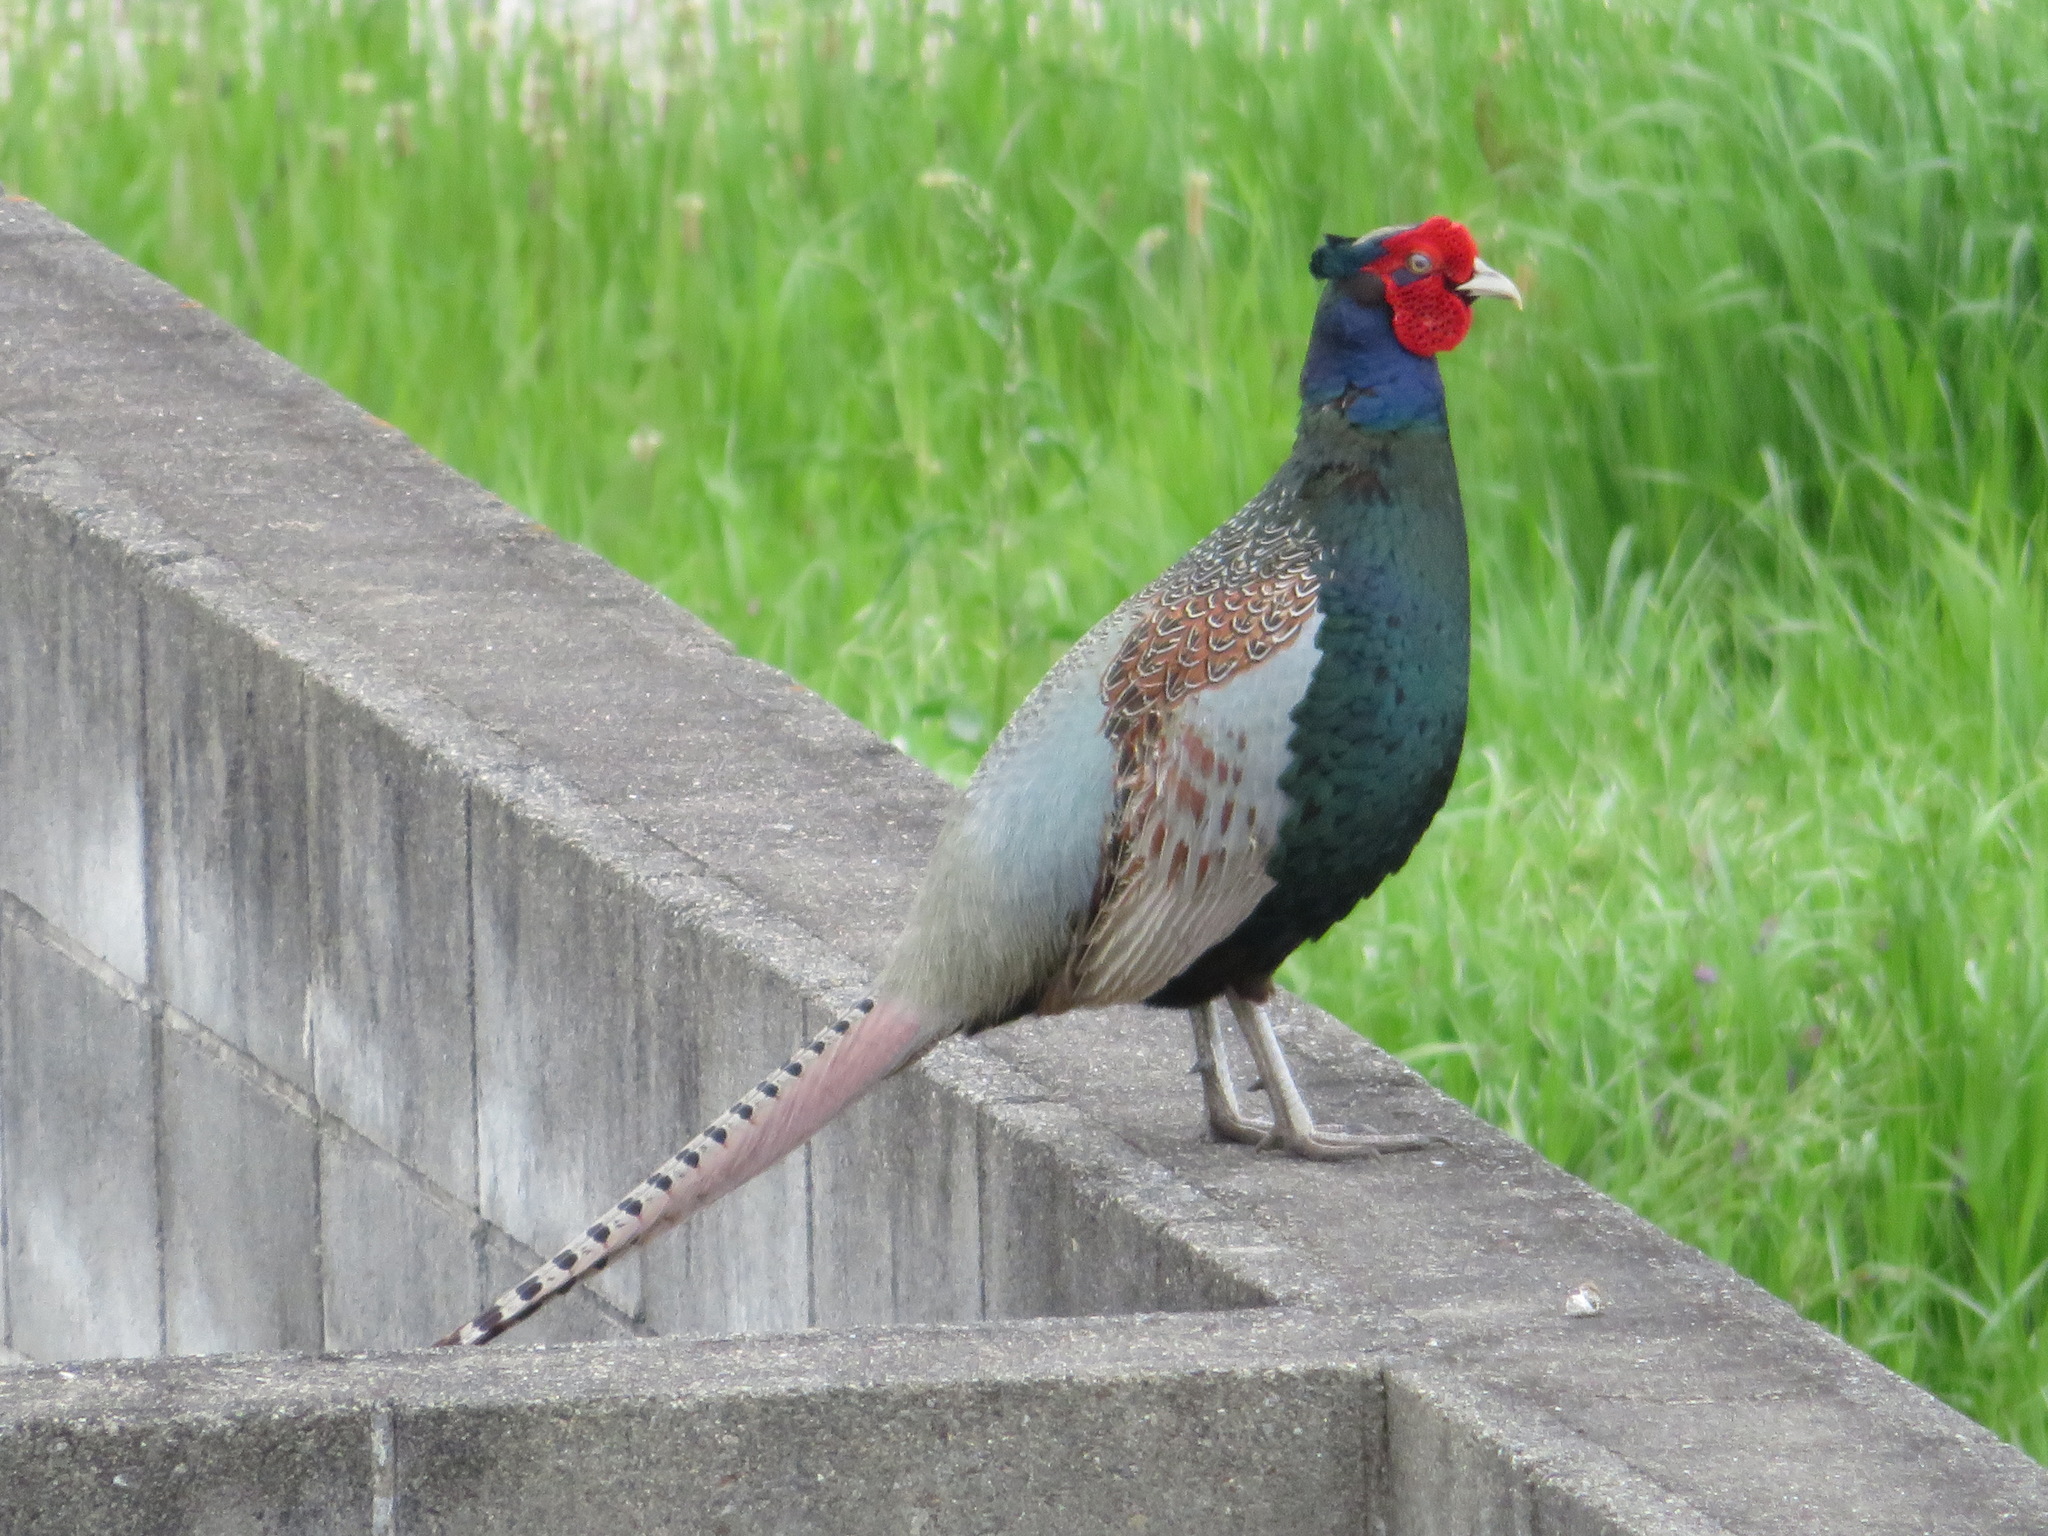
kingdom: Animalia
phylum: Chordata
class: Aves
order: Galliformes
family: Phasianidae
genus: Phasianus
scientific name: Phasianus versicolor
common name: Green pheasant
